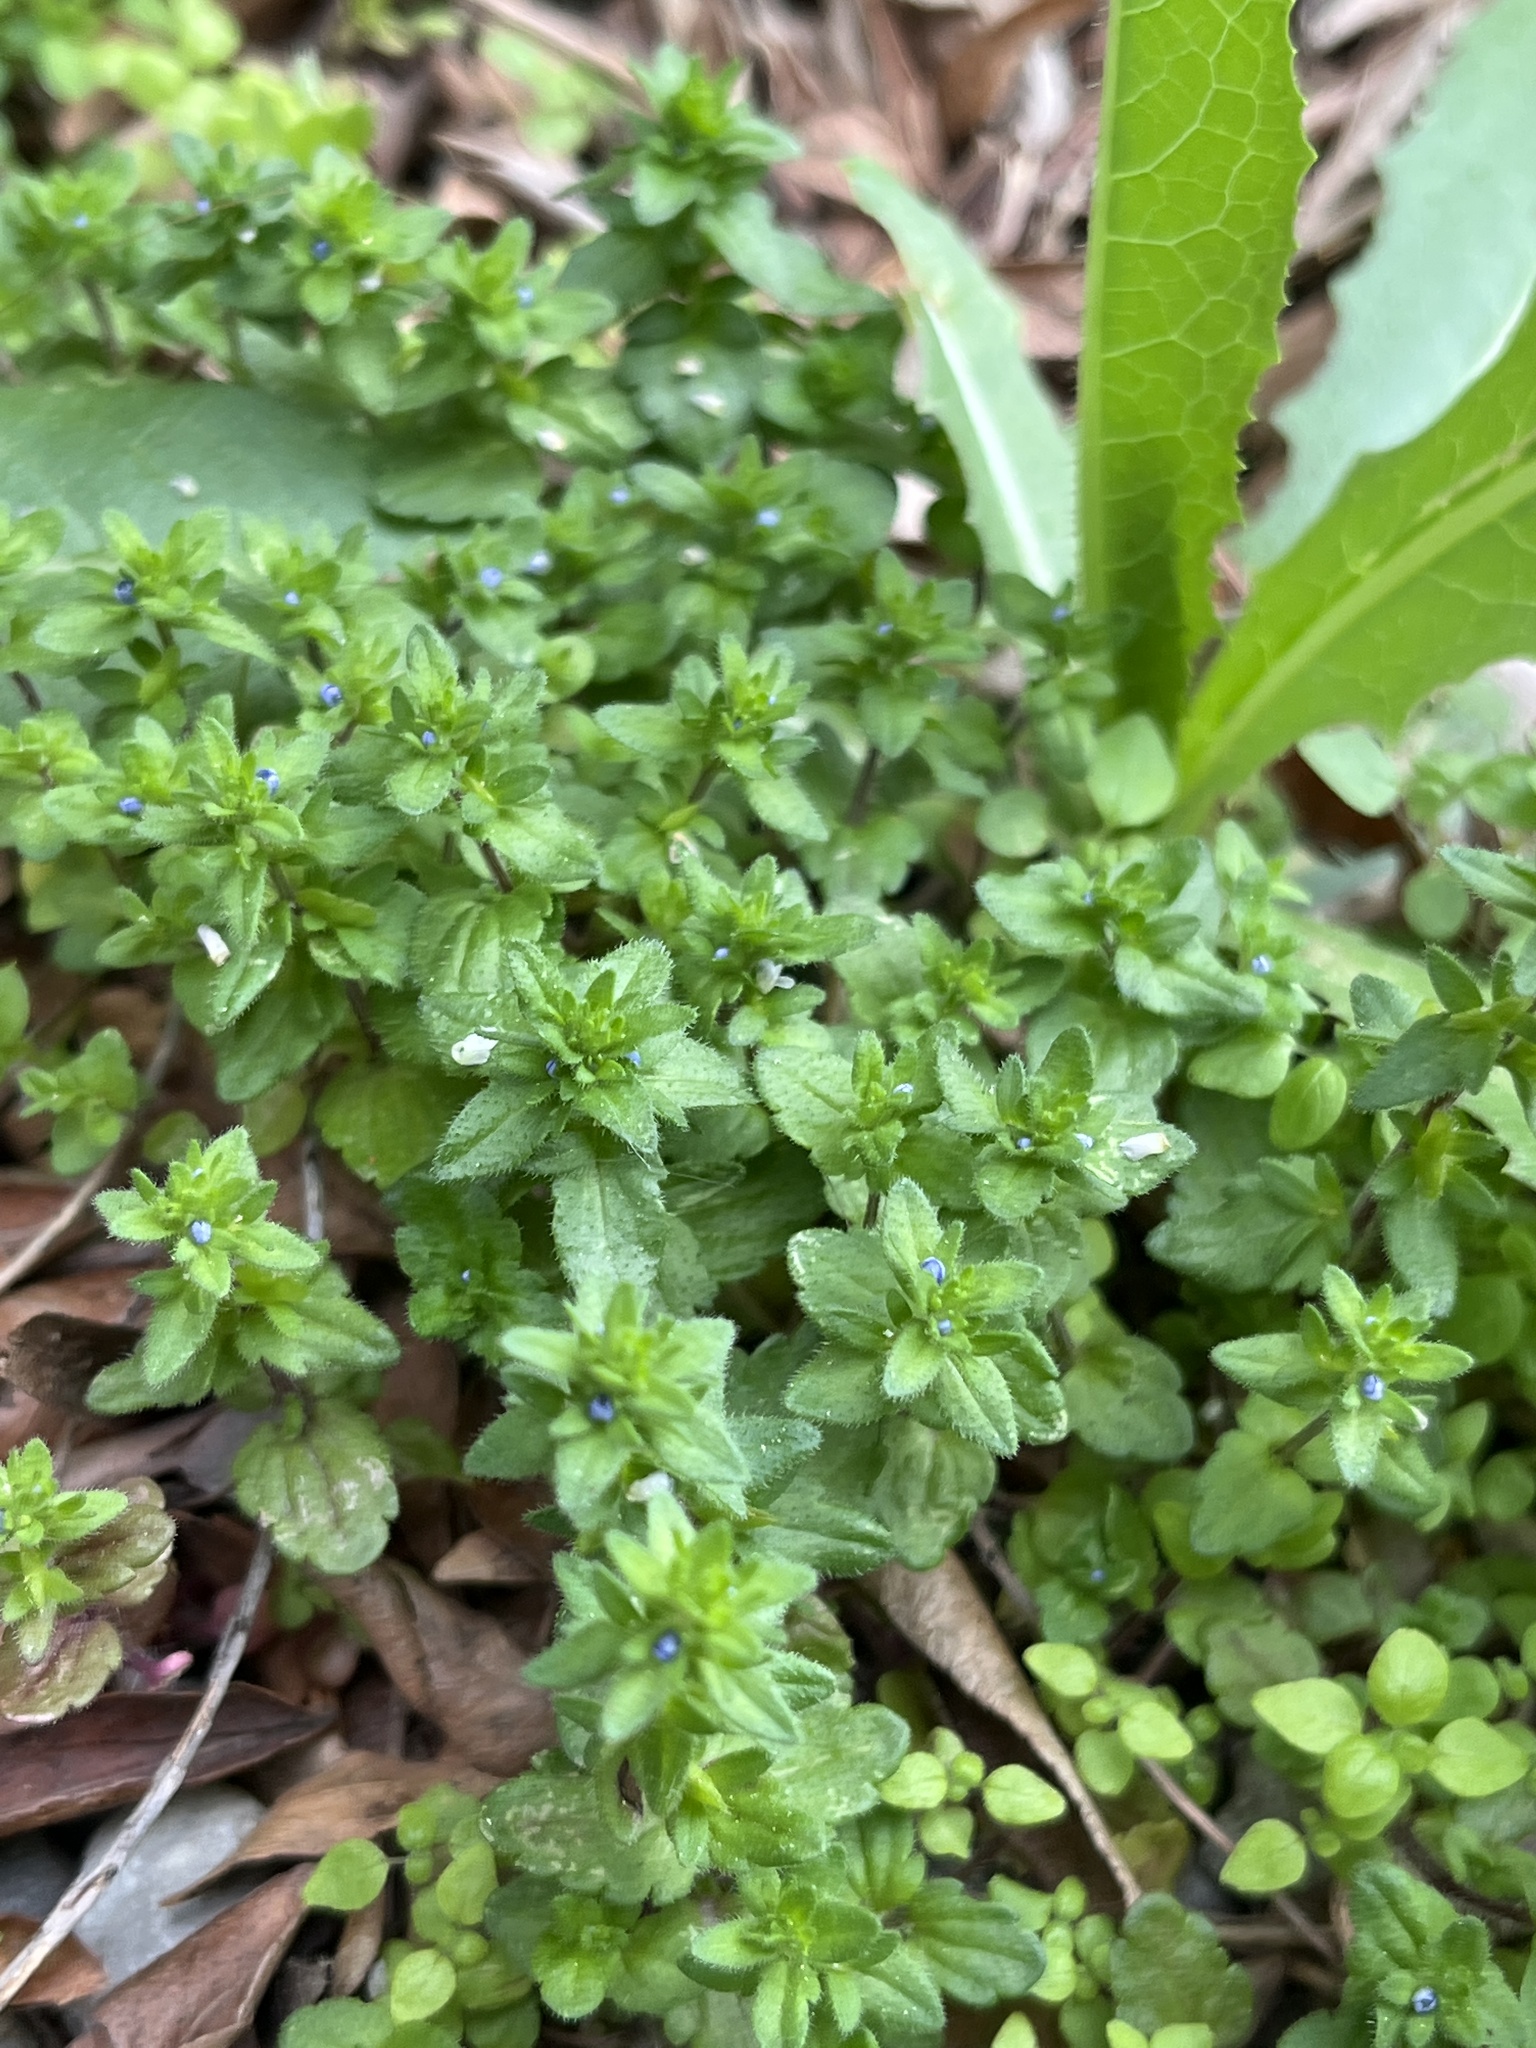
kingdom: Plantae
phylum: Tracheophyta
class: Magnoliopsida
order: Lamiales
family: Plantaginaceae
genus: Veronica
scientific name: Veronica arvensis
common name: Corn speedwell
